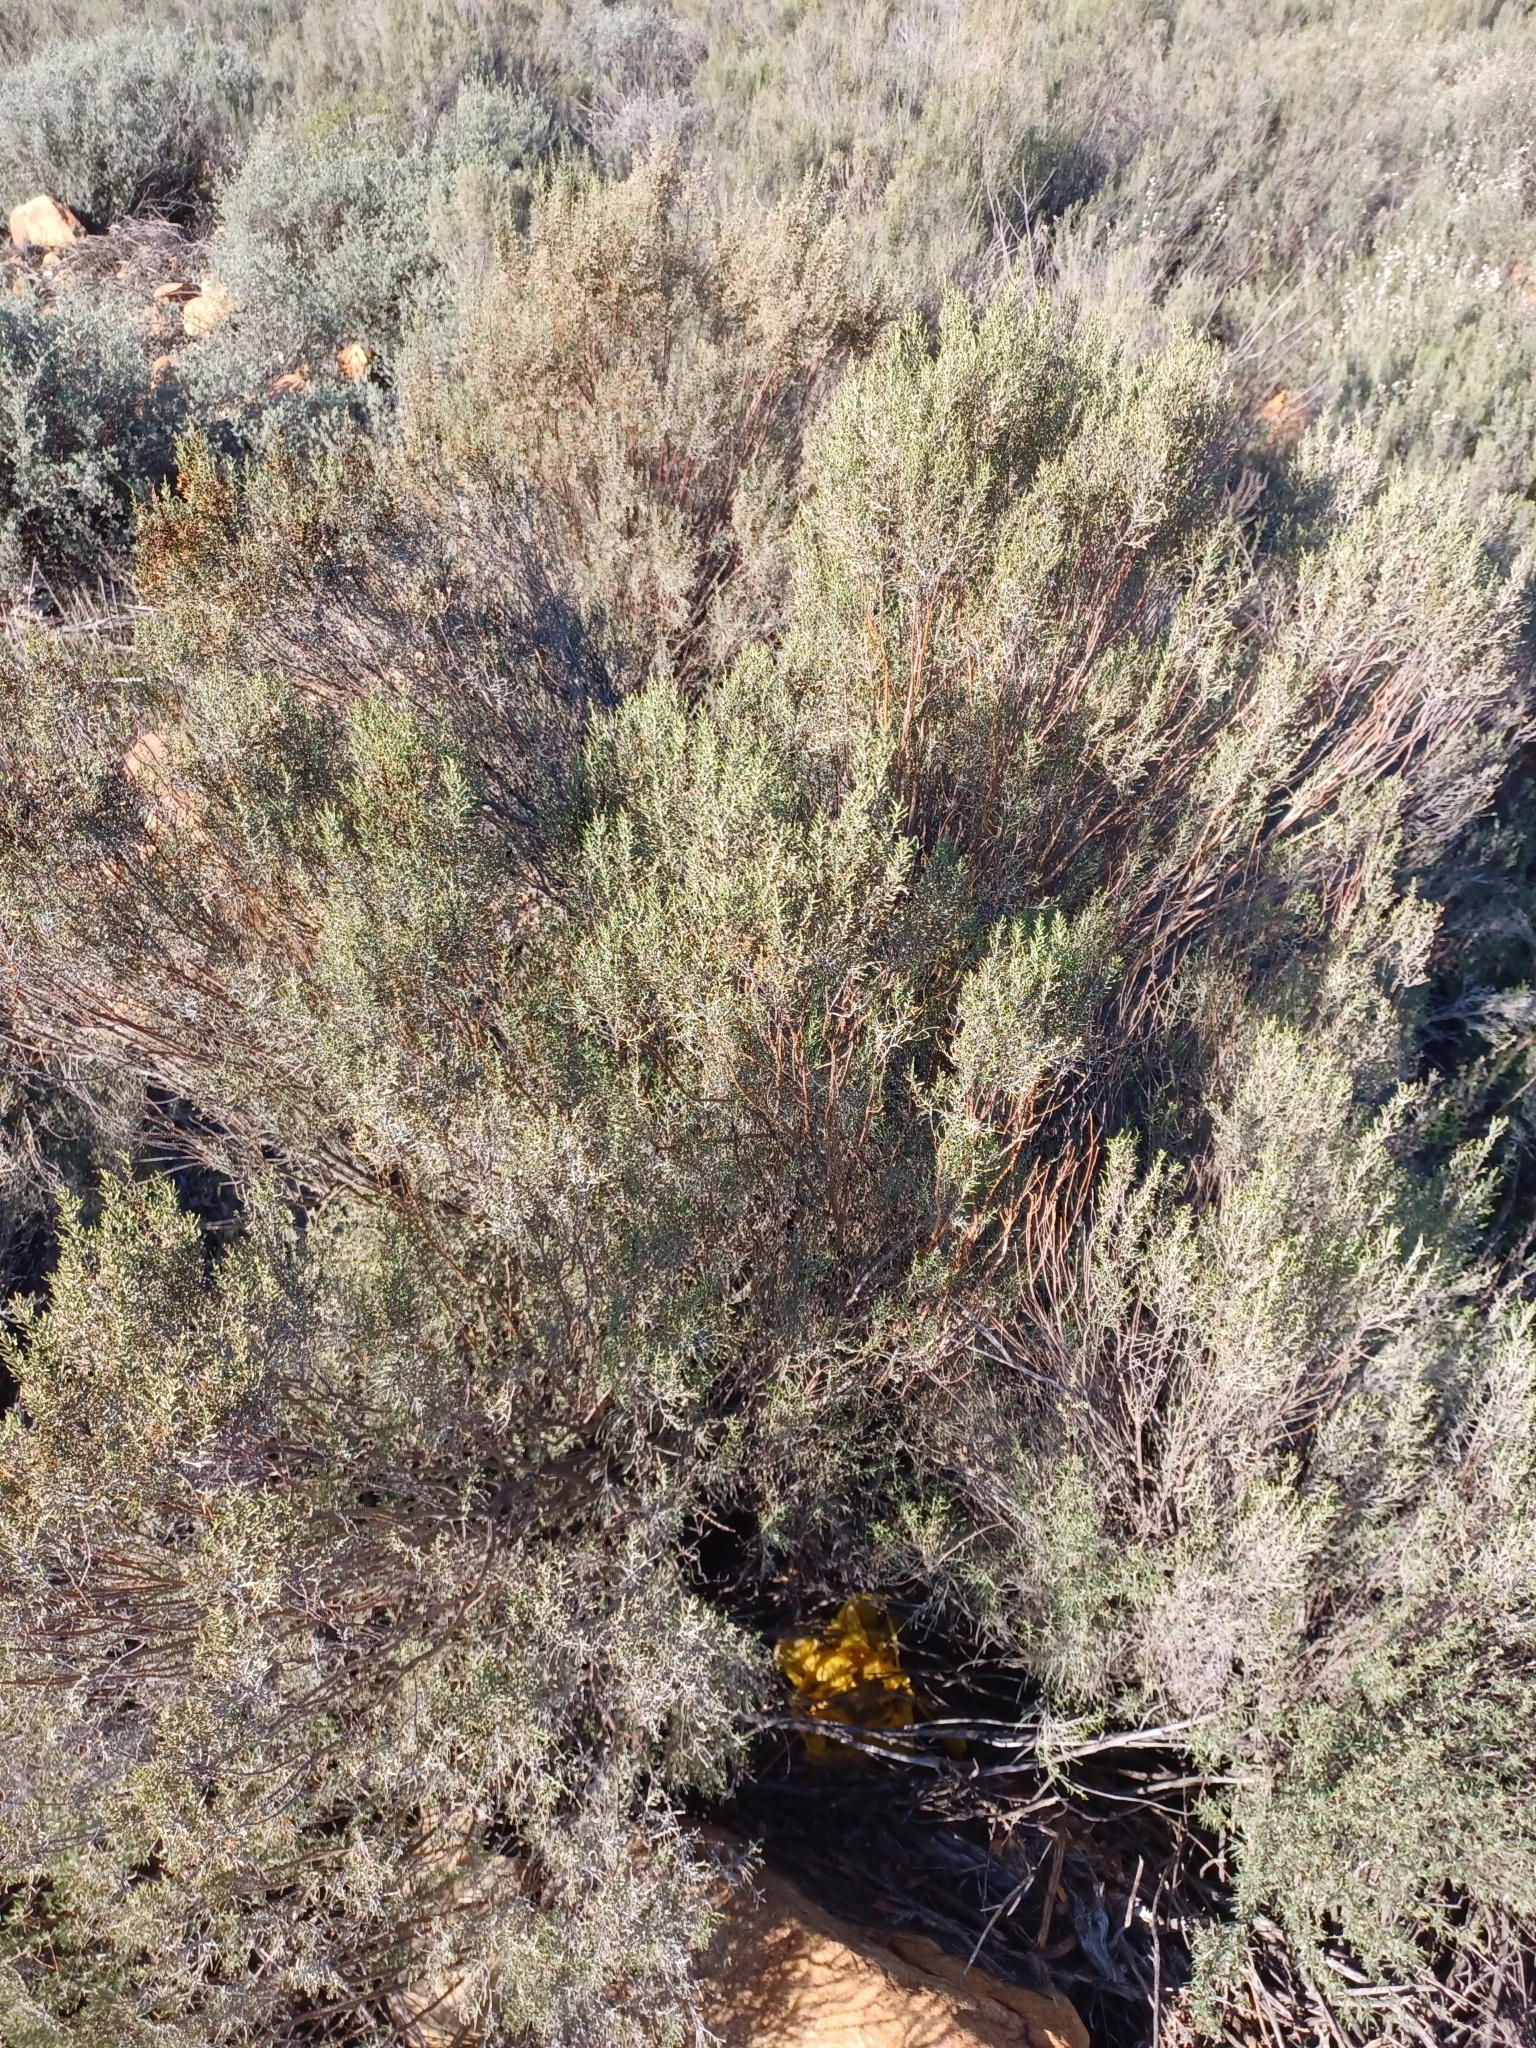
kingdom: Plantae
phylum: Tracheophyta
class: Magnoliopsida
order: Asterales
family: Asteraceae
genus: Dicerothamnus
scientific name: Dicerothamnus rhinocerotis
